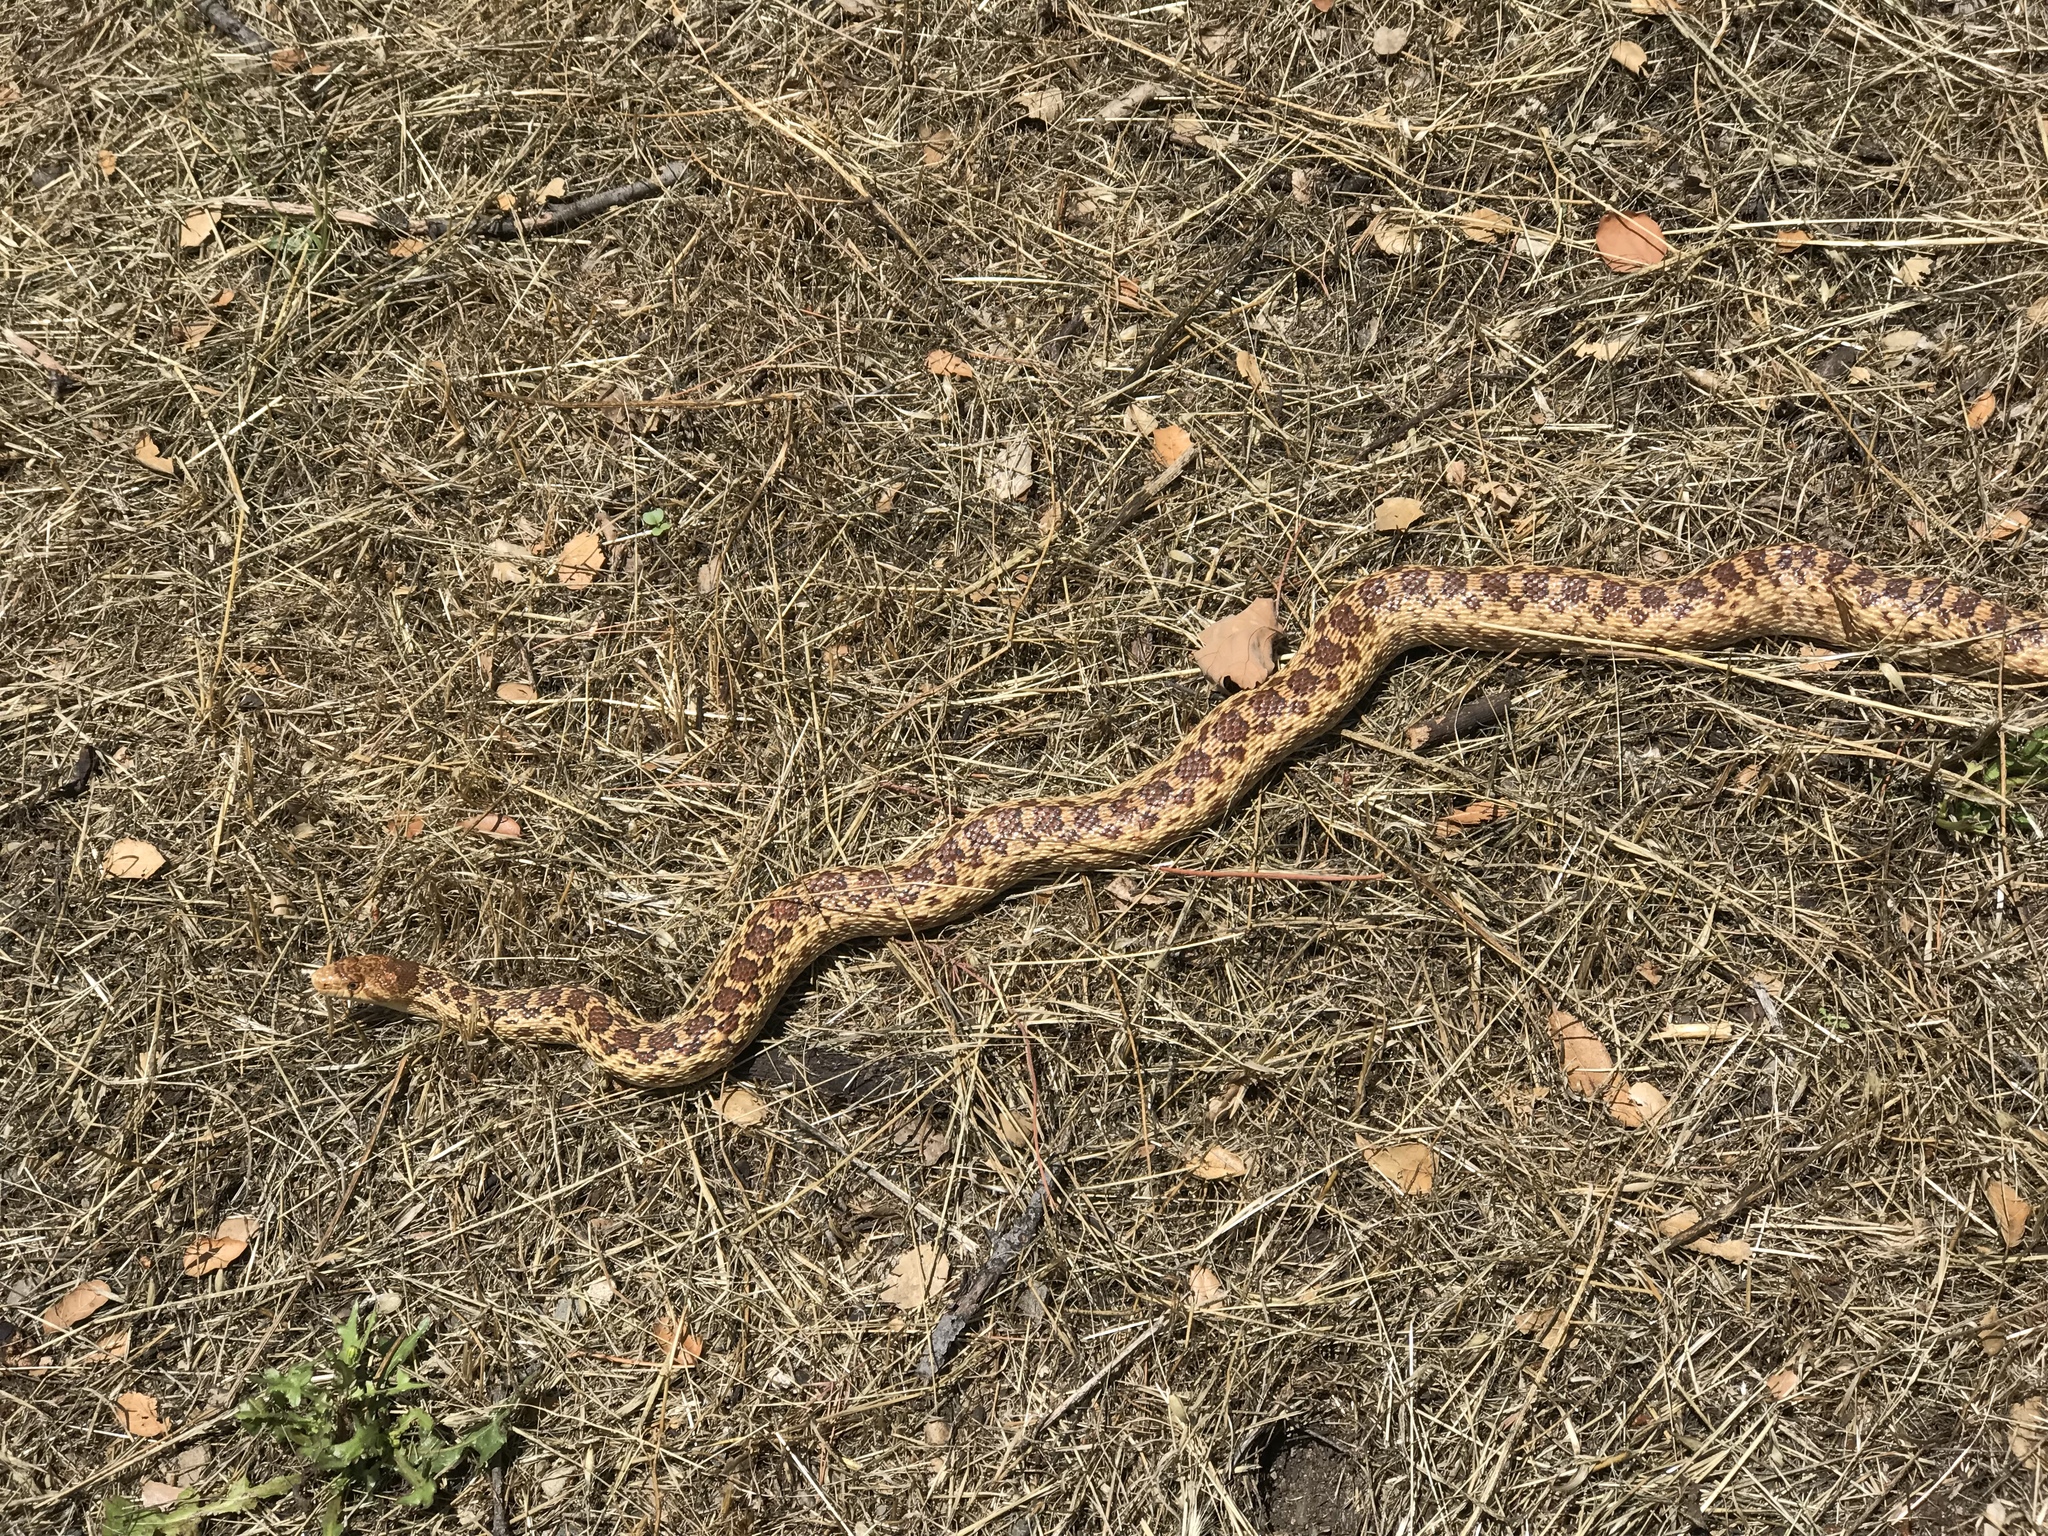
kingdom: Animalia
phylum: Chordata
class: Squamata
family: Colubridae
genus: Pituophis
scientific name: Pituophis catenifer
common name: Gopher snake
